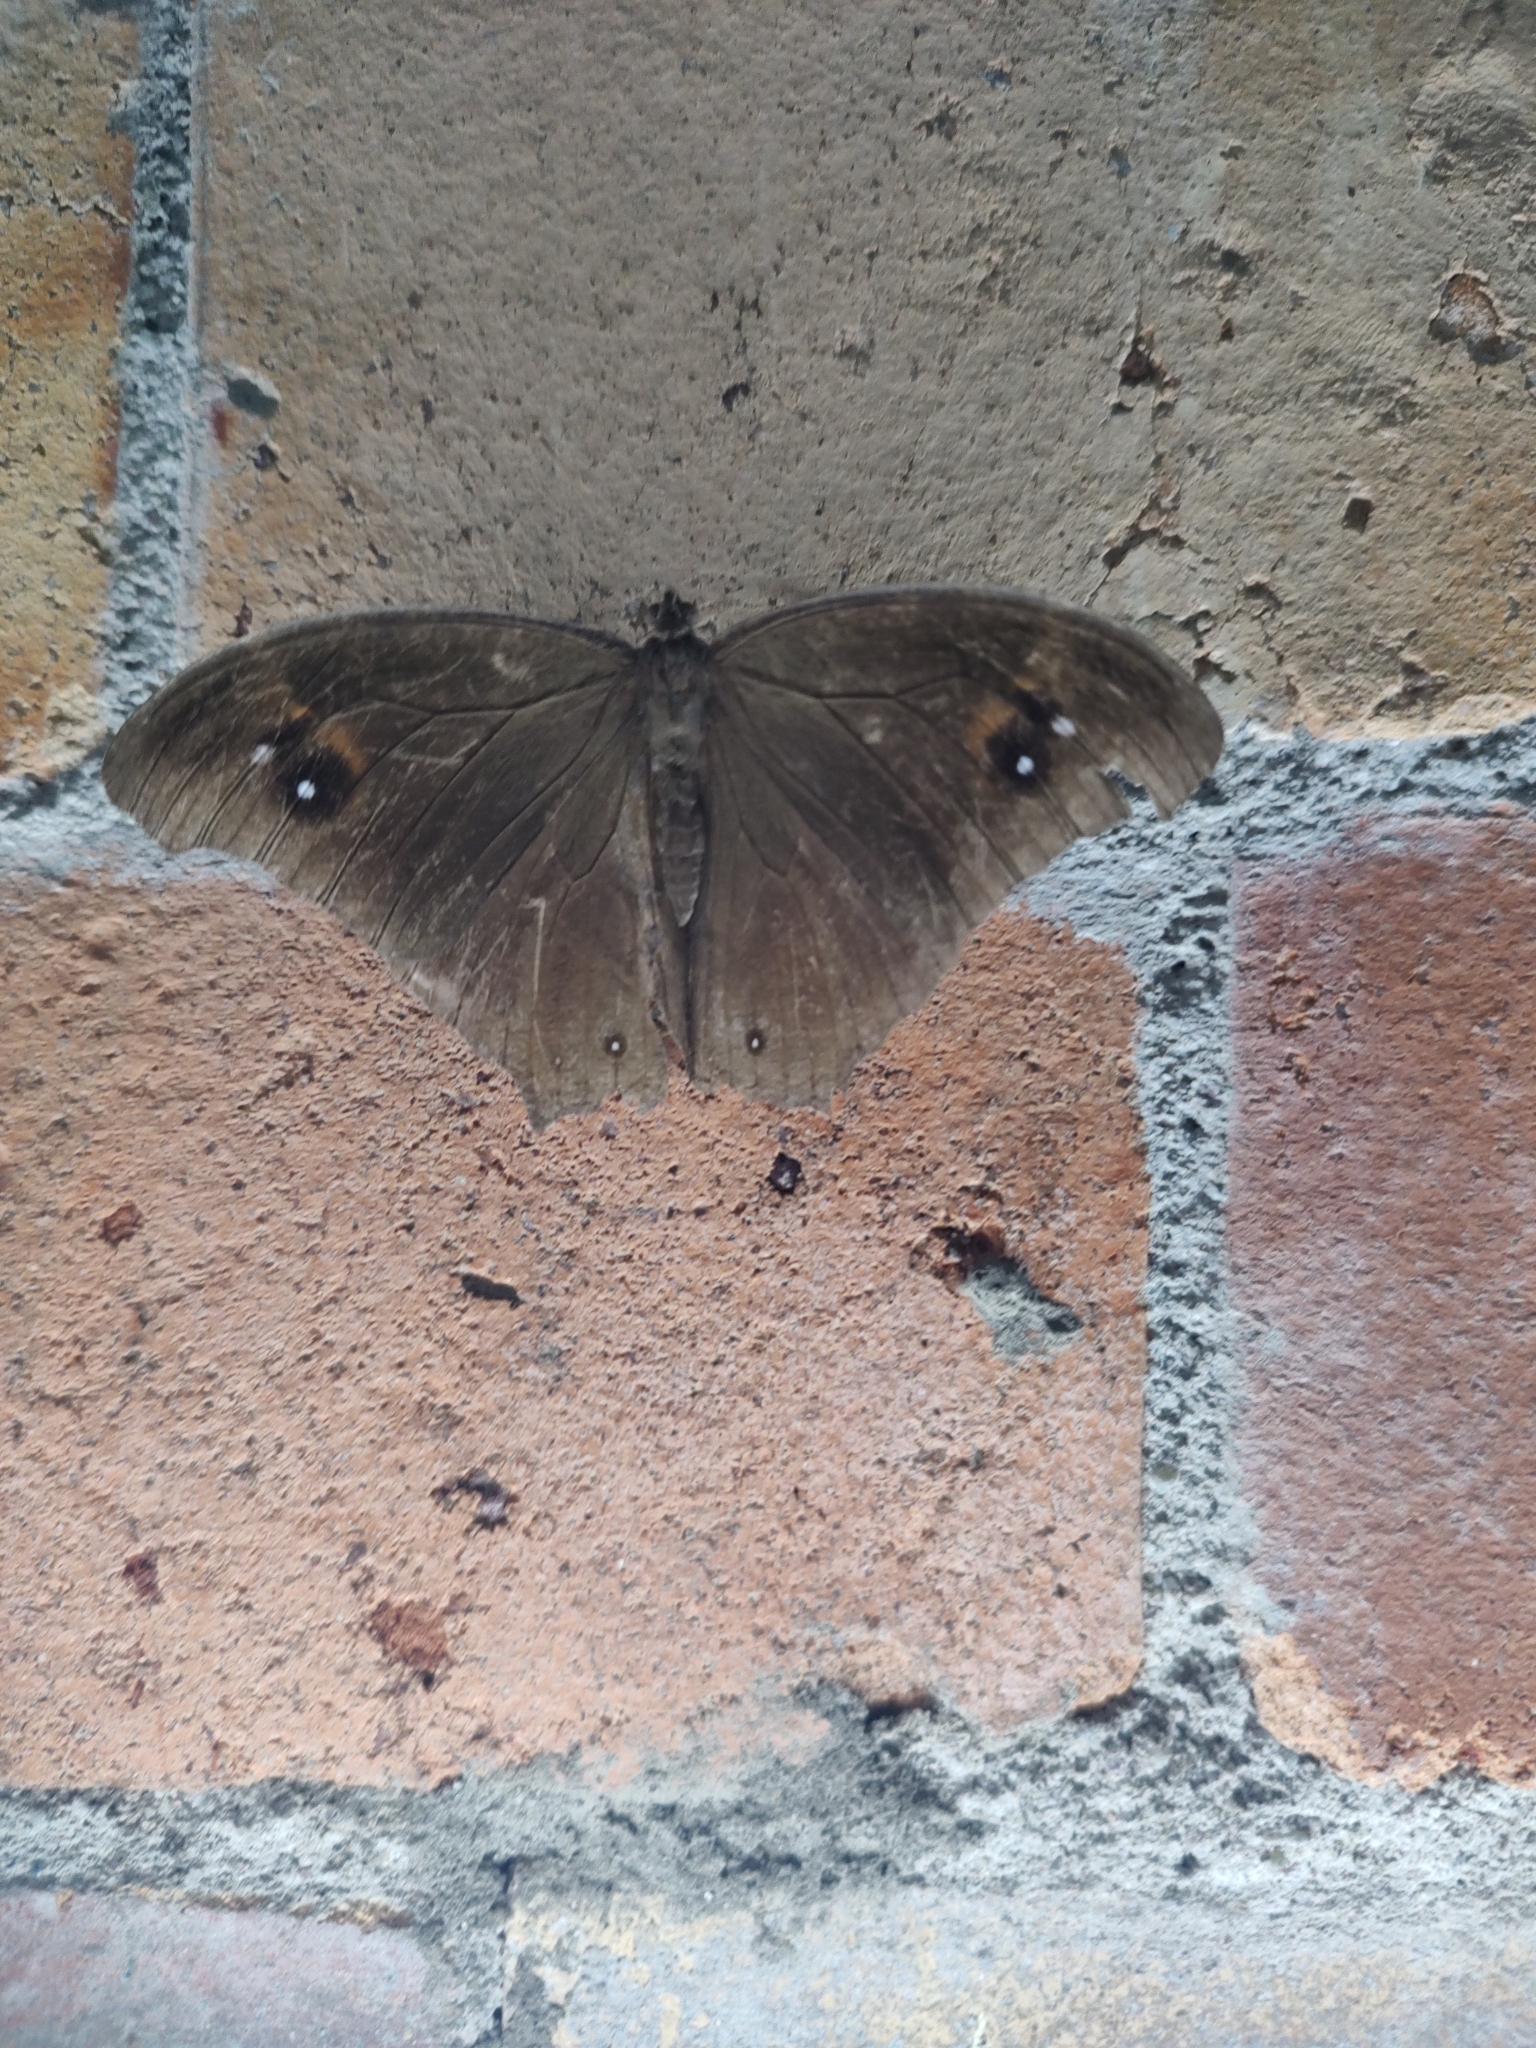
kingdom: Animalia
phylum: Arthropoda
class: Insecta
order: Lepidoptera
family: Nymphalidae
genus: Melanitis
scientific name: Melanitis leda
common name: Twilight brown
